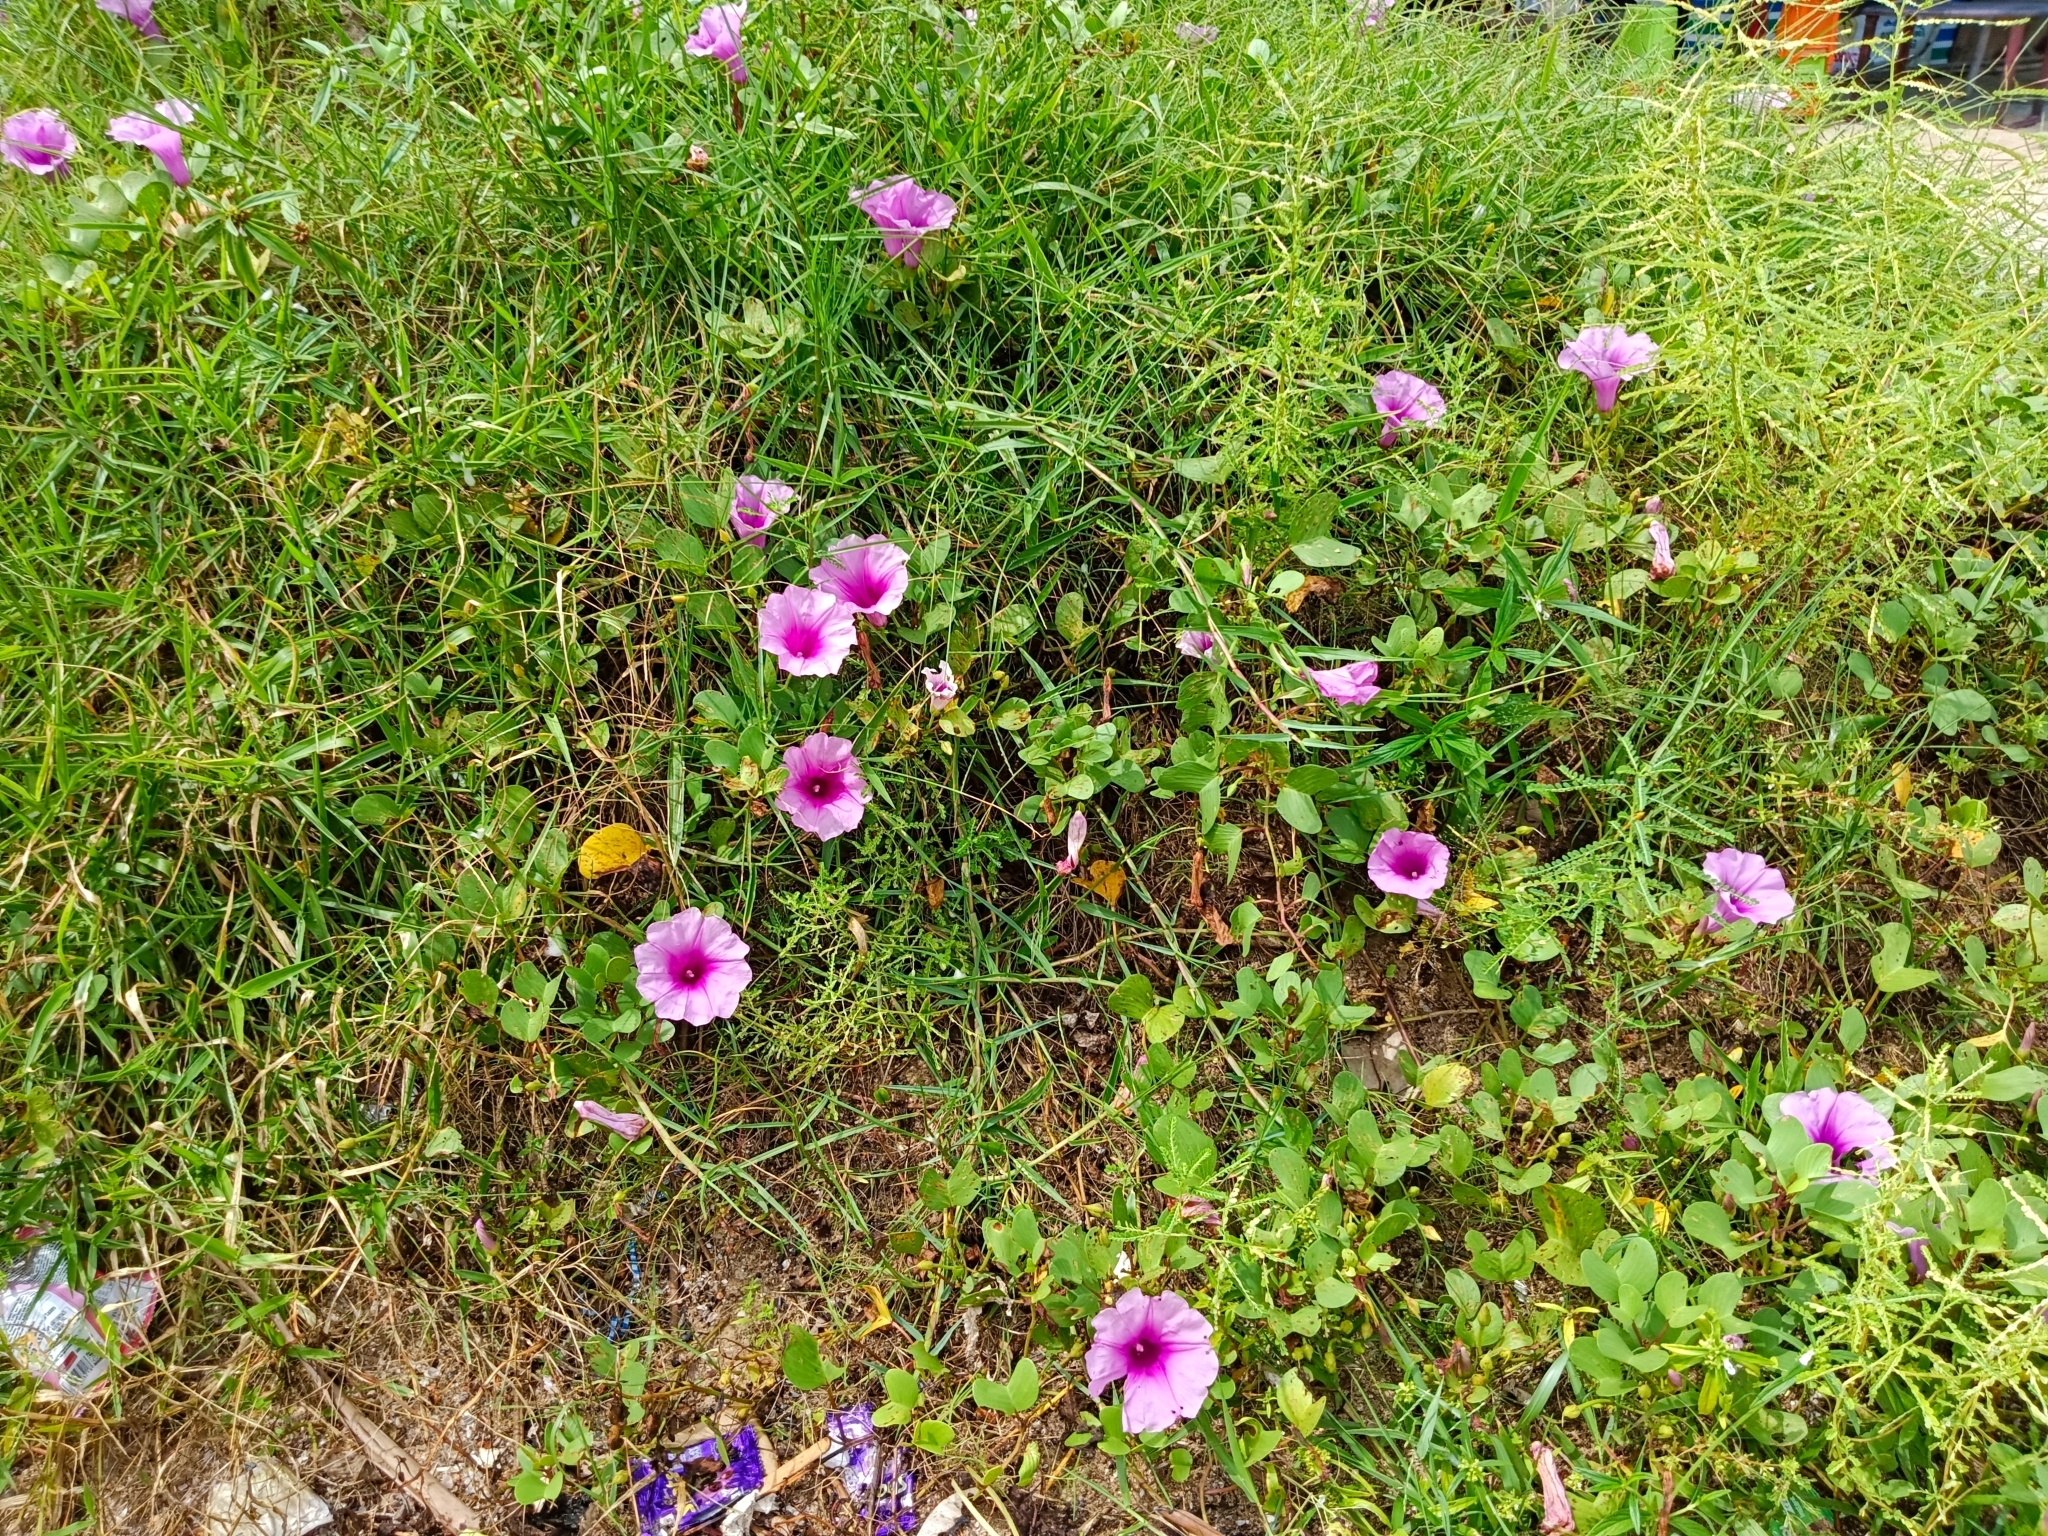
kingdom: Plantae
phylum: Tracheophyta
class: Magnoliopsida
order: Solanales
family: Convolvulaceae
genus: Ipomoea
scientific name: Ipomoea pes-caprae
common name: Beach morning glory
